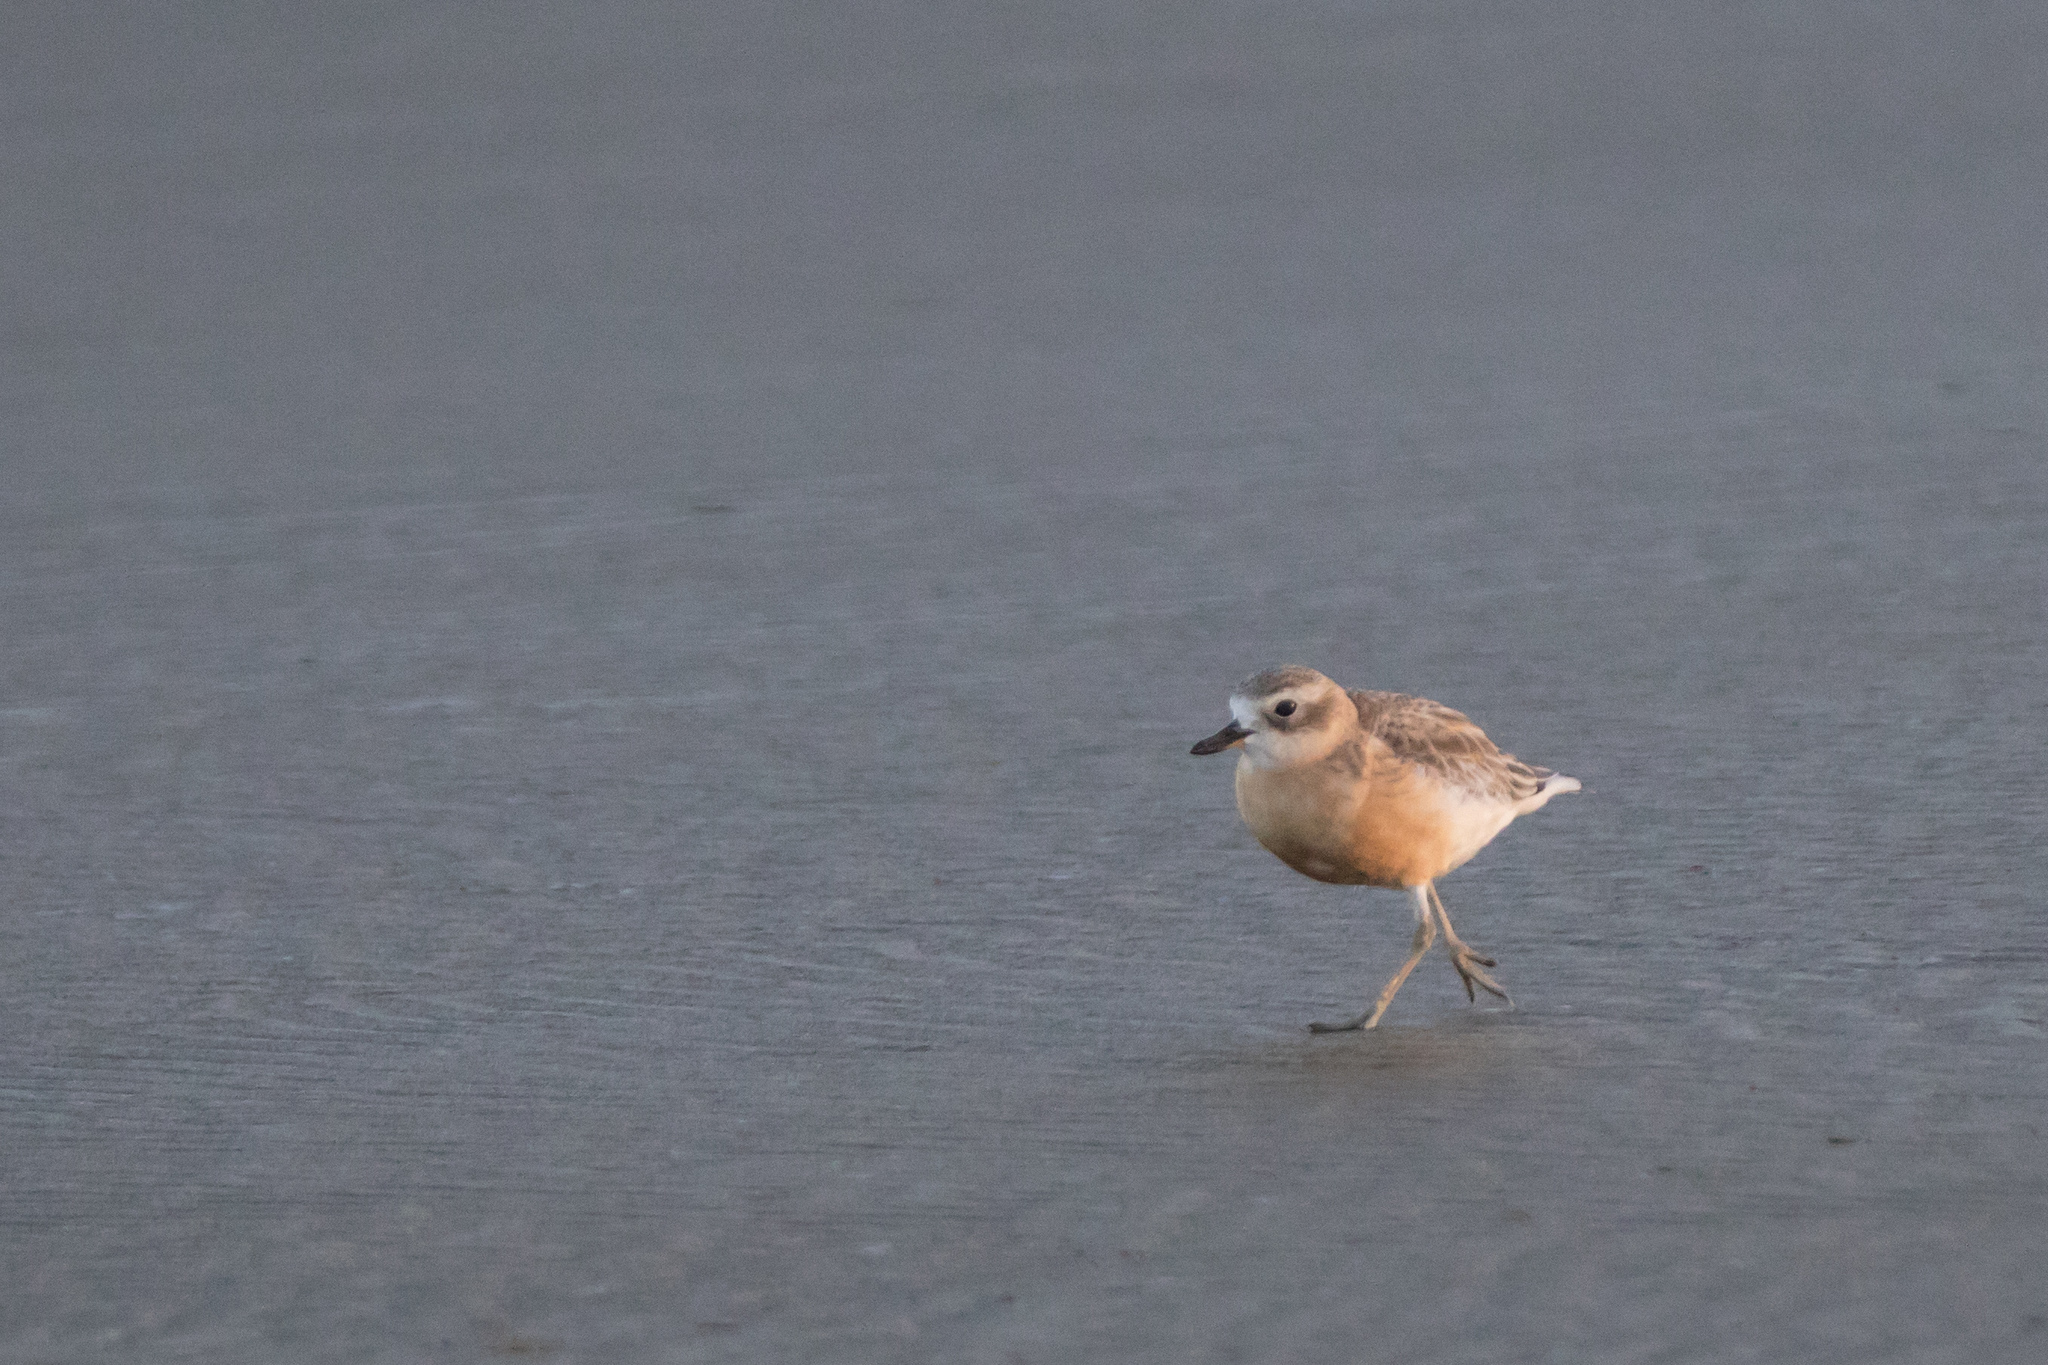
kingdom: Animalia
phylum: Chordata
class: Aves
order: Charadriiformes
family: Charadriidae
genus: Anarhynchus
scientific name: Anarhynchus
